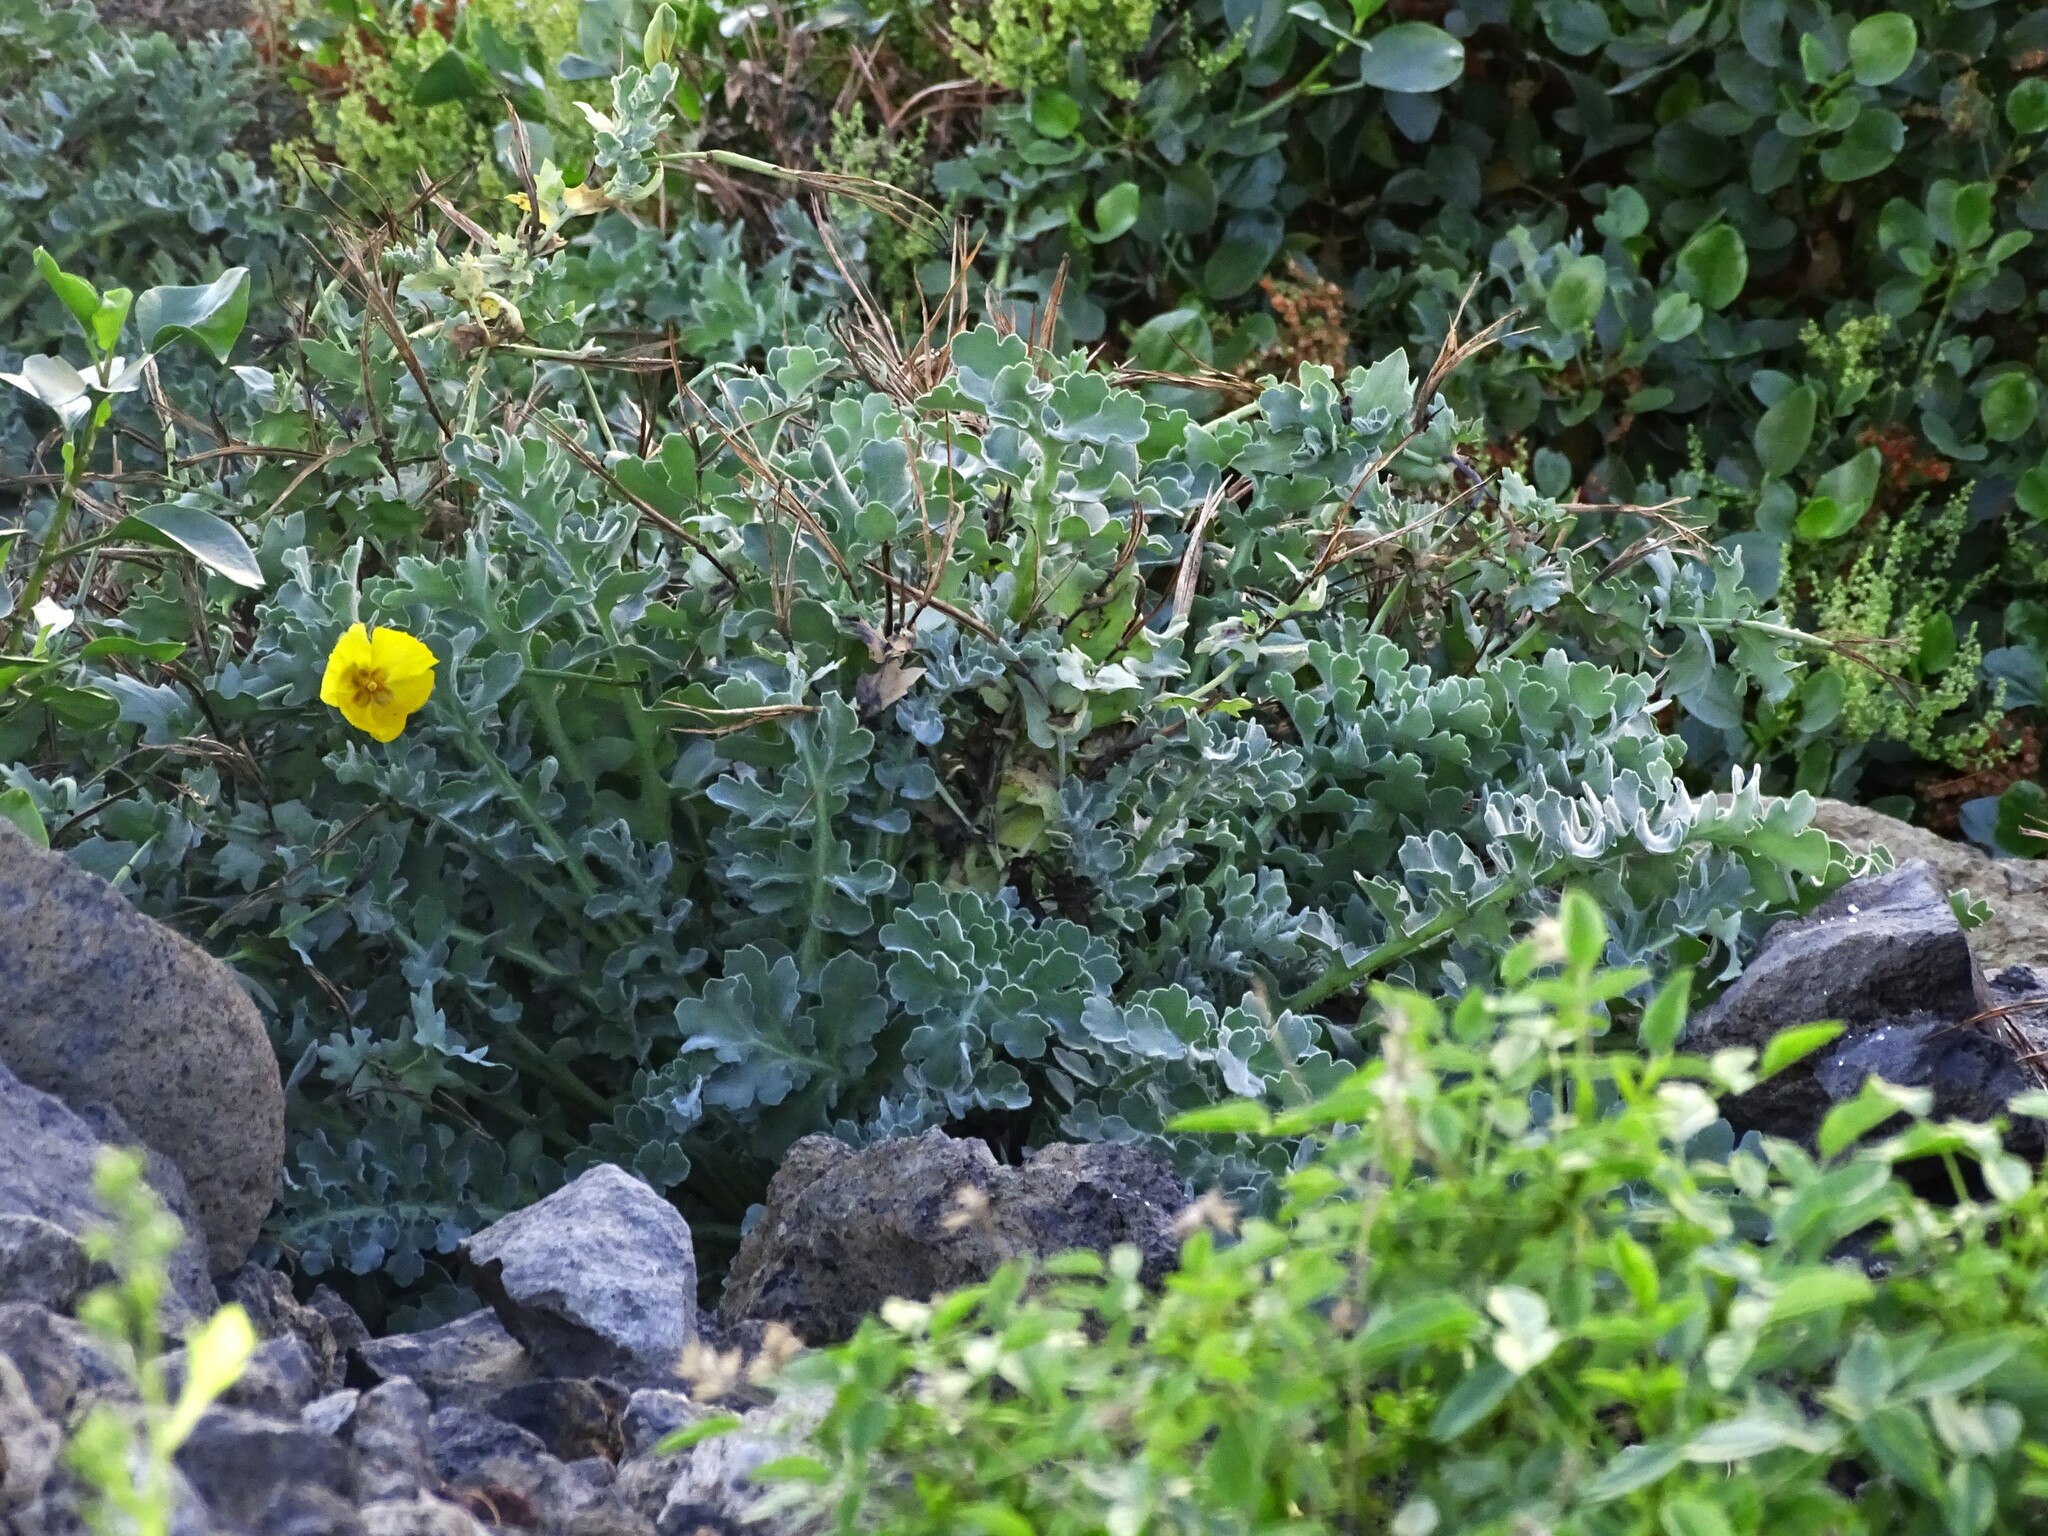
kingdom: Plantae
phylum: Tracheophyta
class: Magnoliopsida
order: Ranunculales
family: Papaveraceae
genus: Glaucium
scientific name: Glaucium flavum
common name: Yellow horned-poppy
